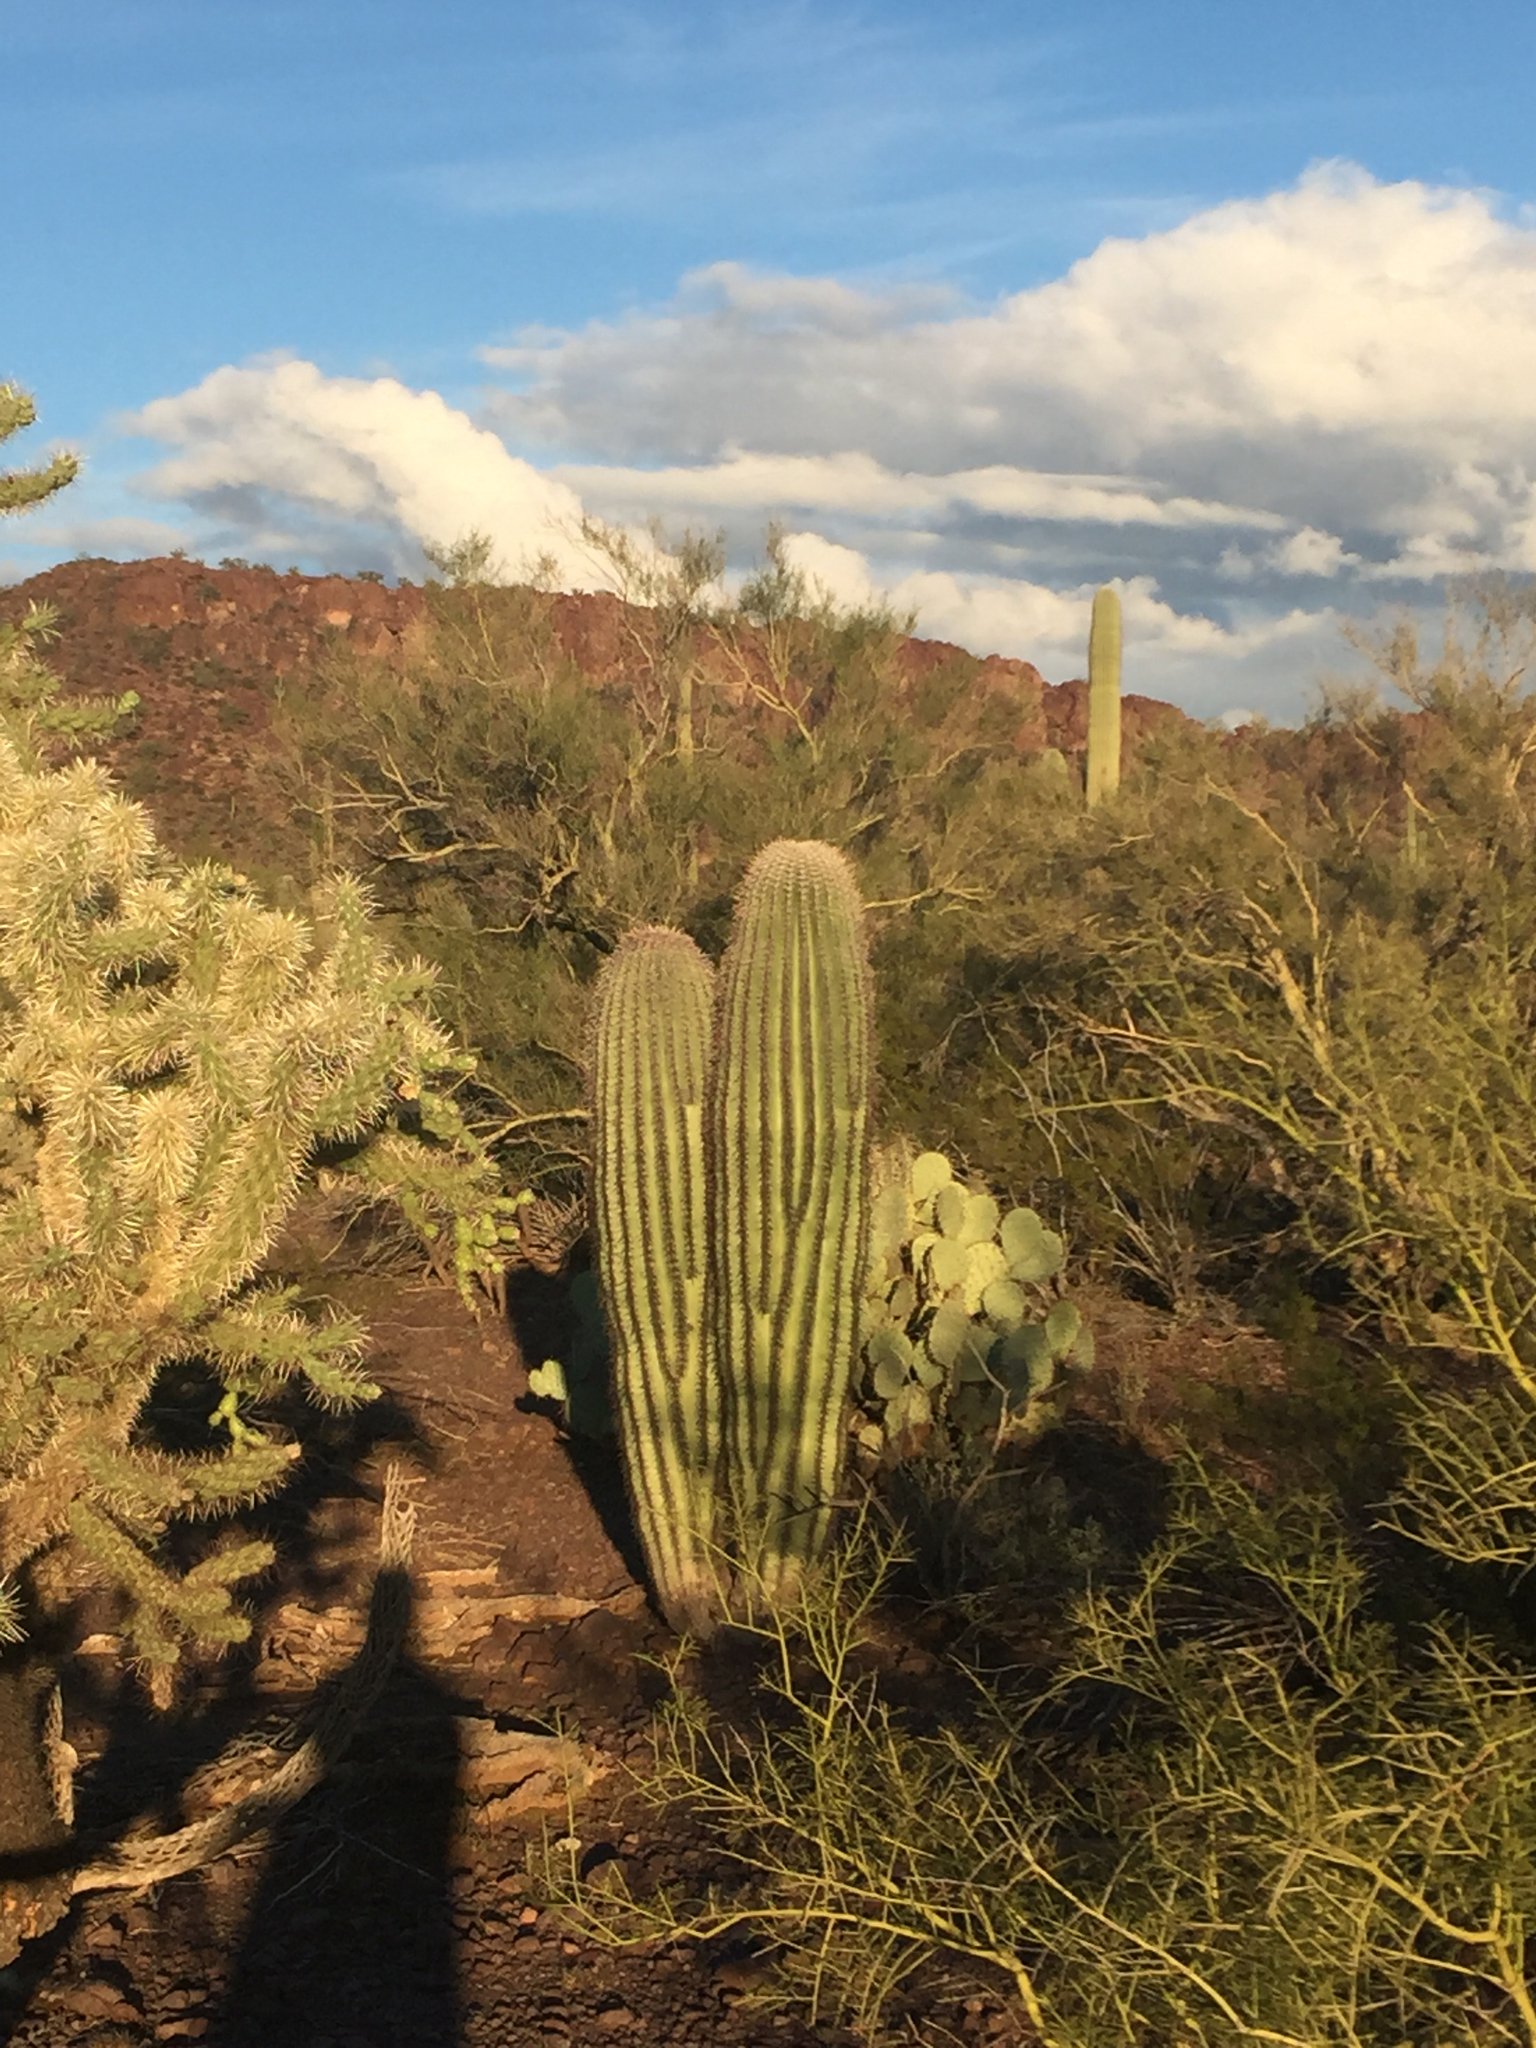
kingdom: Plantae
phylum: Tracheophyta
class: Magnoliopsida
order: Caryophyllales
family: Cactaceae
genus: Carnegiea
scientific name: Carnegiea gigantea
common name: Saguaro
